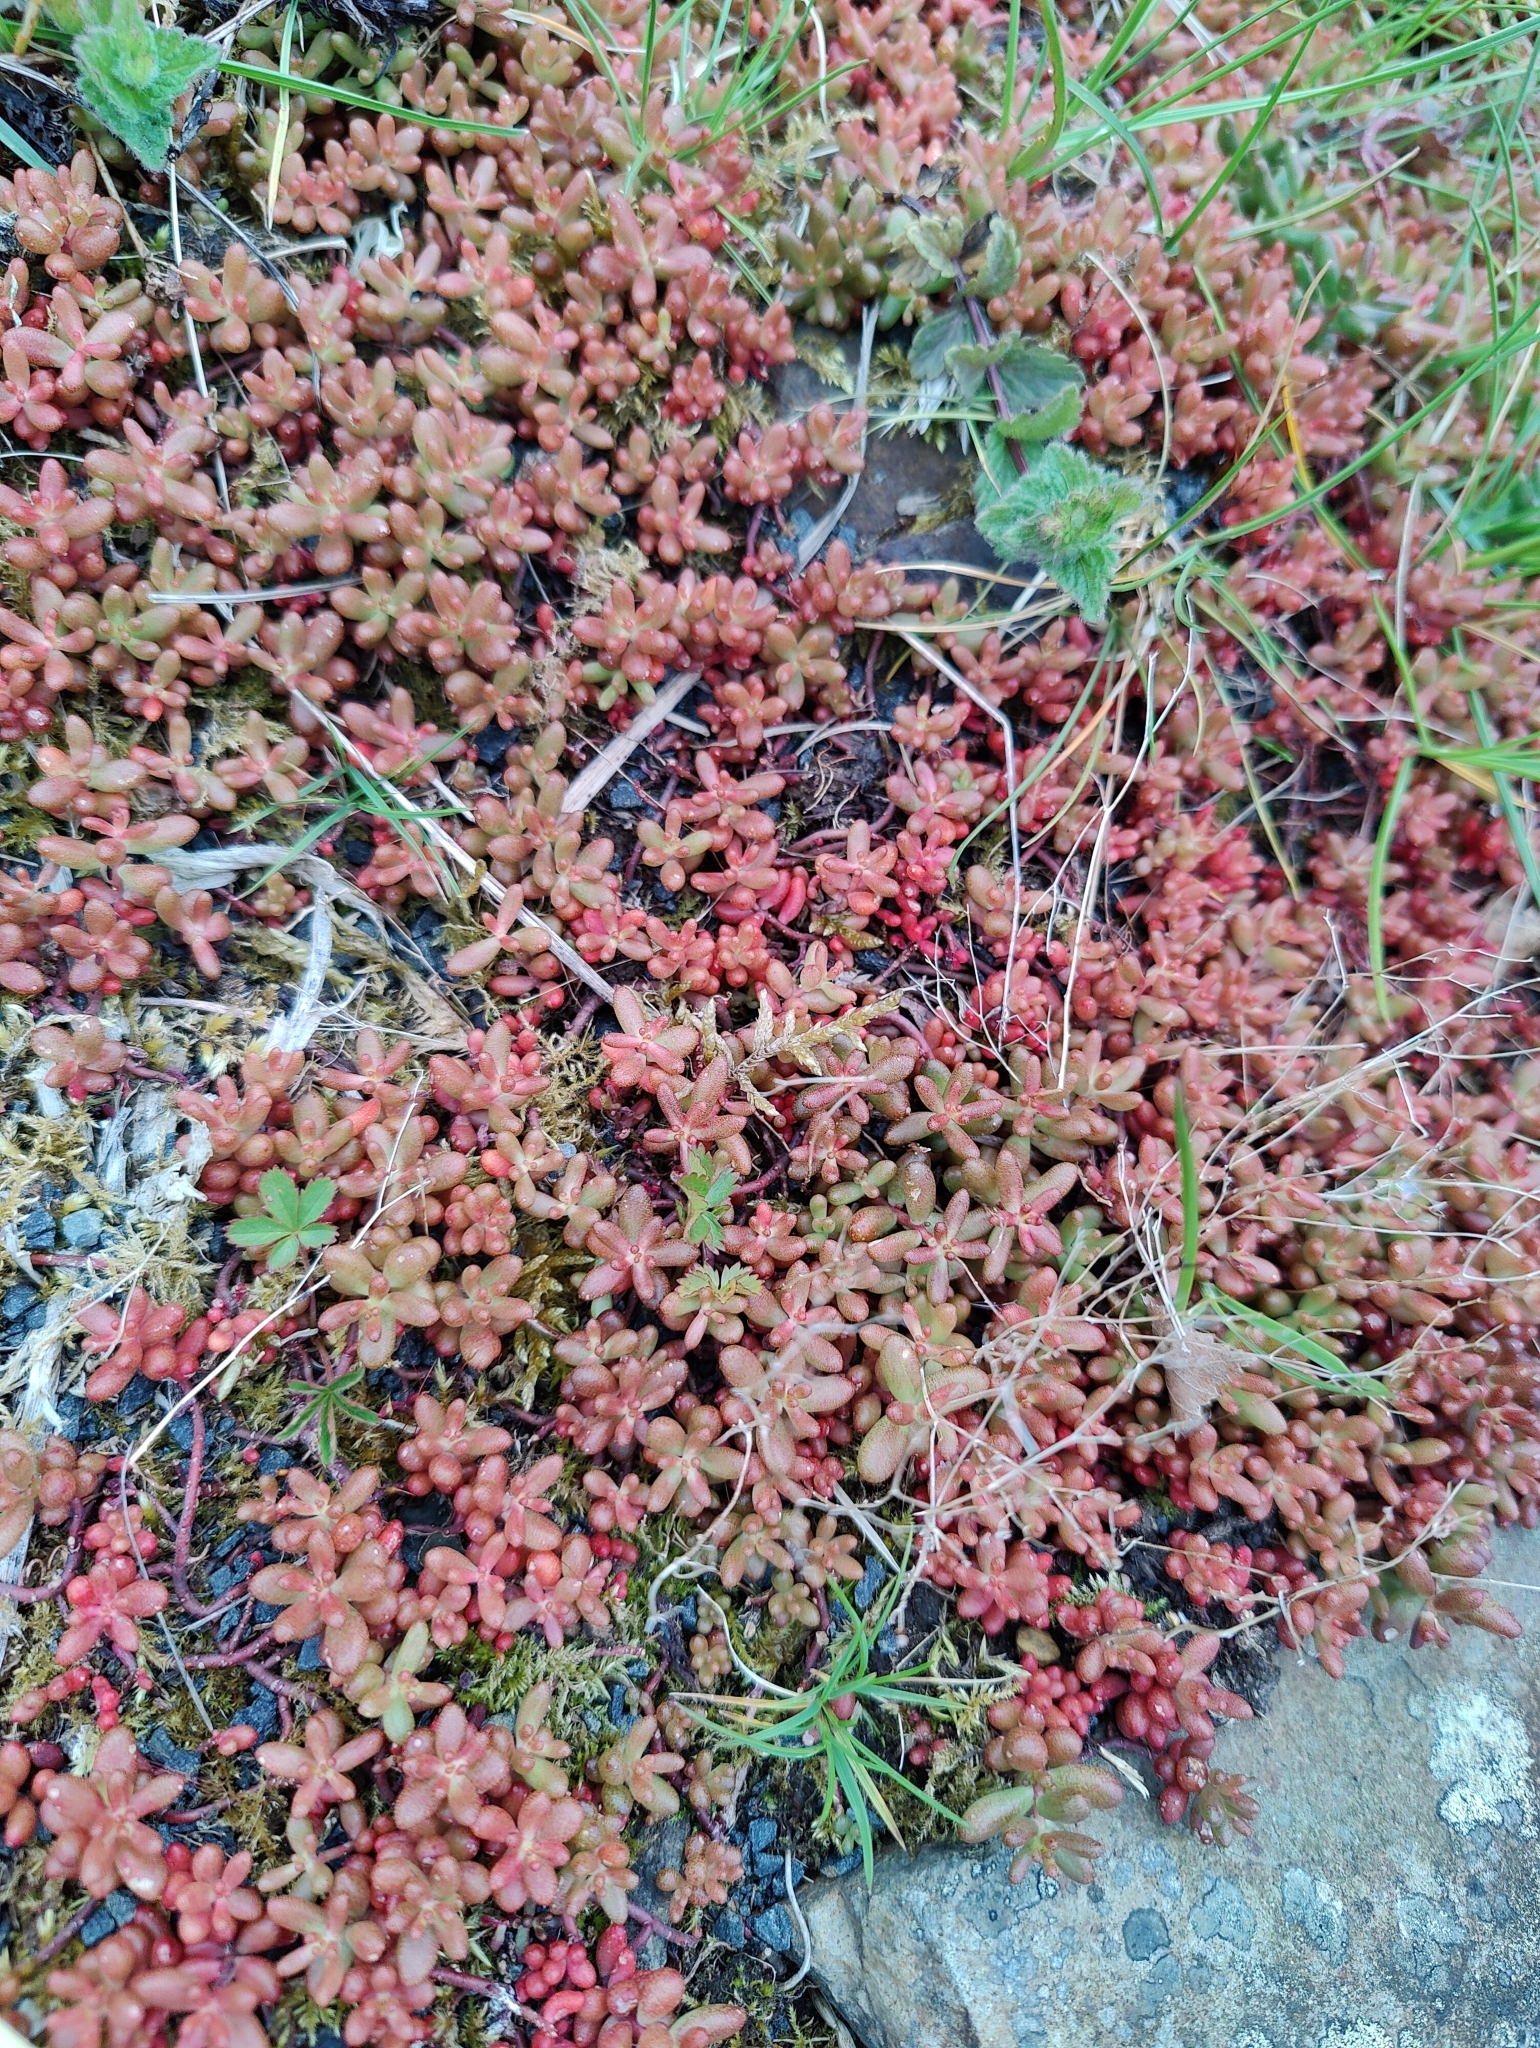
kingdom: Plantae
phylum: Tracheophyta
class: Magnoliopsida
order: Saxifragales
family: Crassulaceae
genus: Sedum
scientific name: Sedum album
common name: White stonecrop
